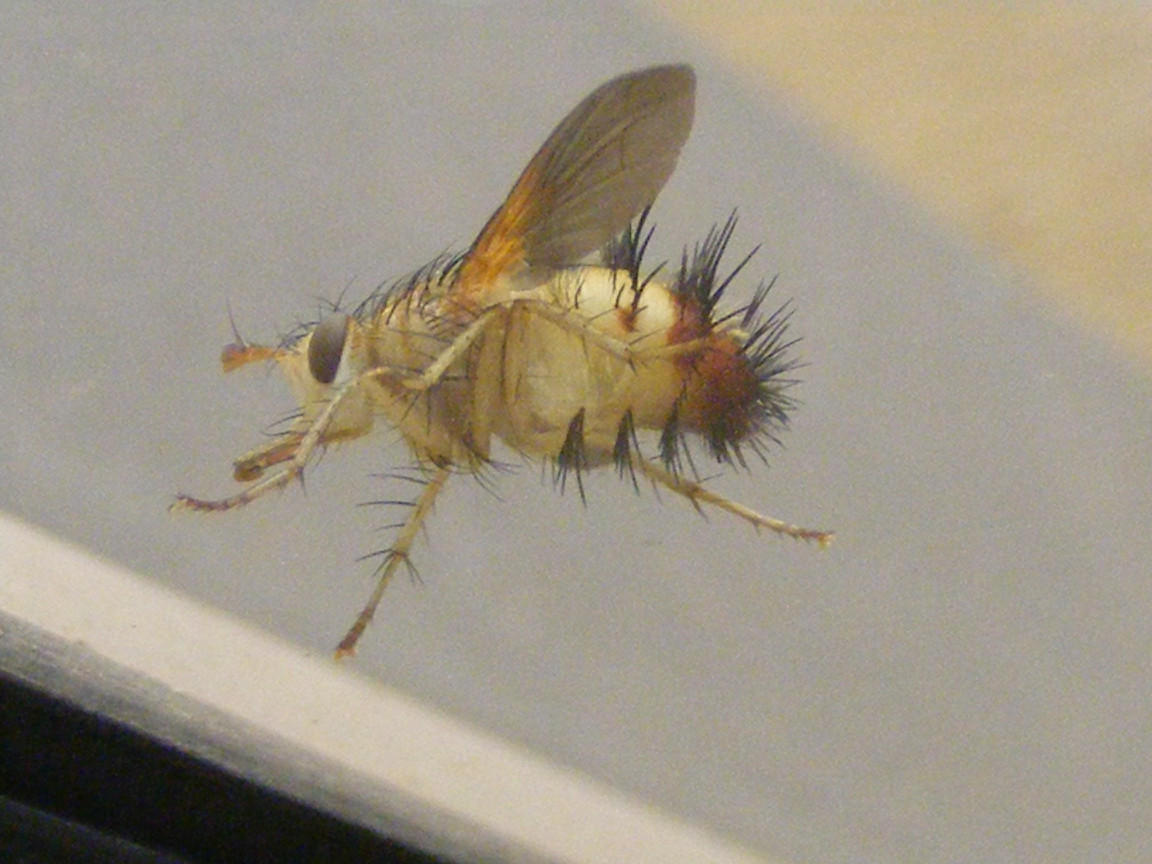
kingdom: Animalia
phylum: Arthropoda
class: Insecta
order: Diptera
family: Tachinidae
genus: Dejeania
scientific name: Dejeania bombylans
